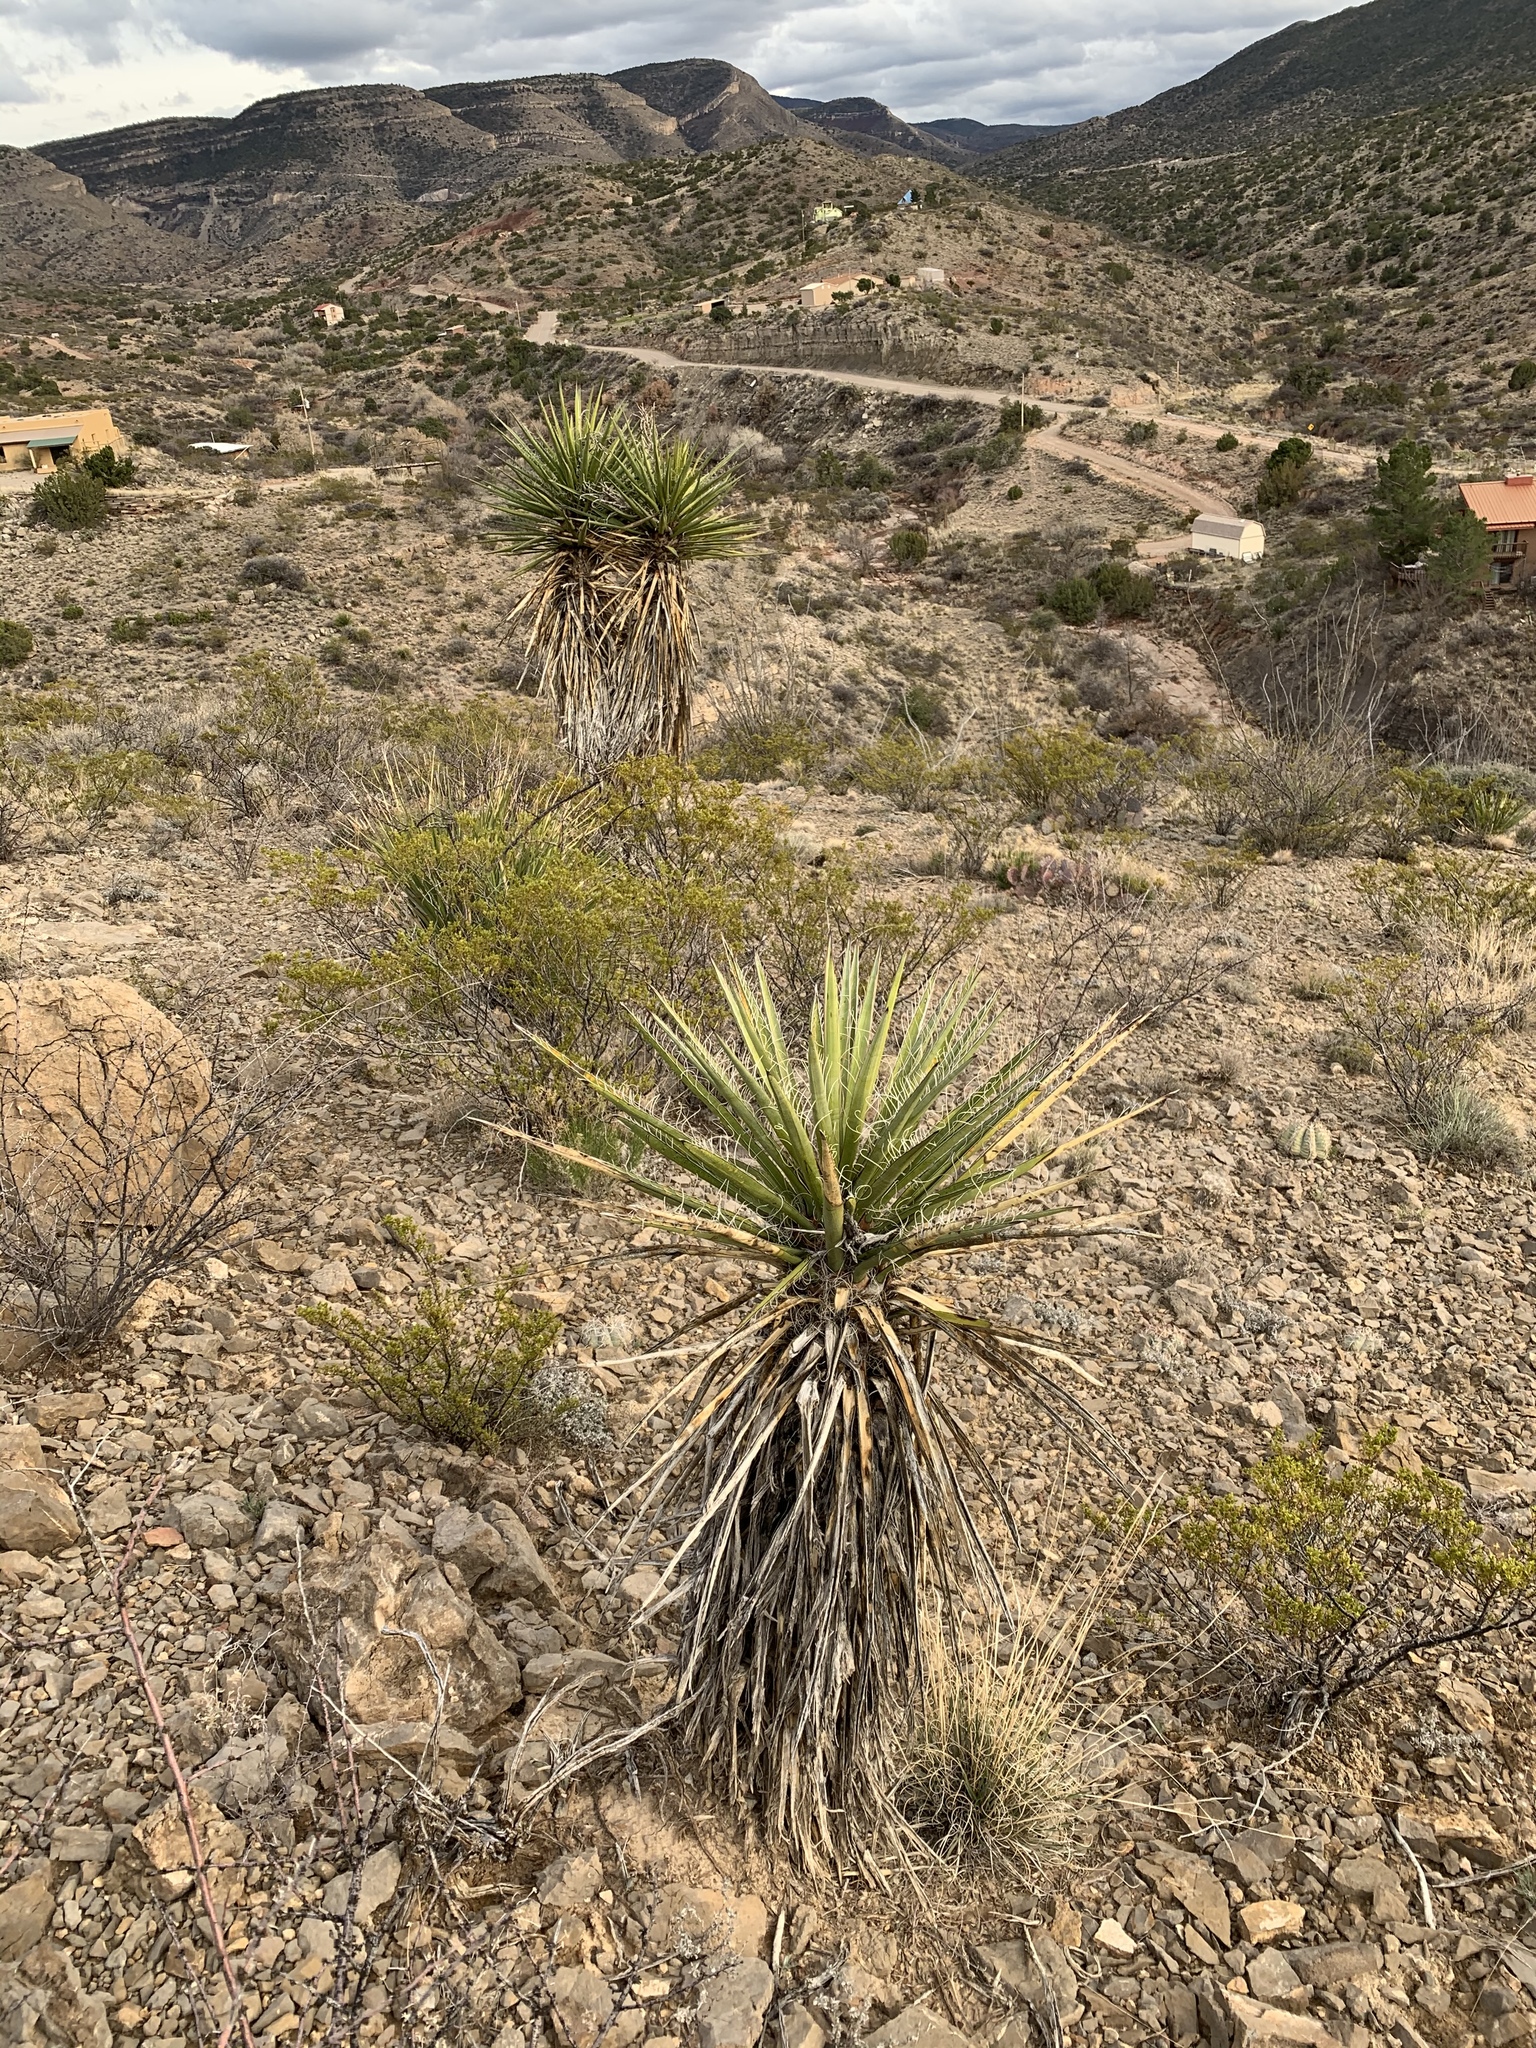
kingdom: Plantae
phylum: Tracheophyta
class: Liliopsida
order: Asparagales
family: Asparagaceae
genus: Yucca
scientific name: Yucca treculiana
